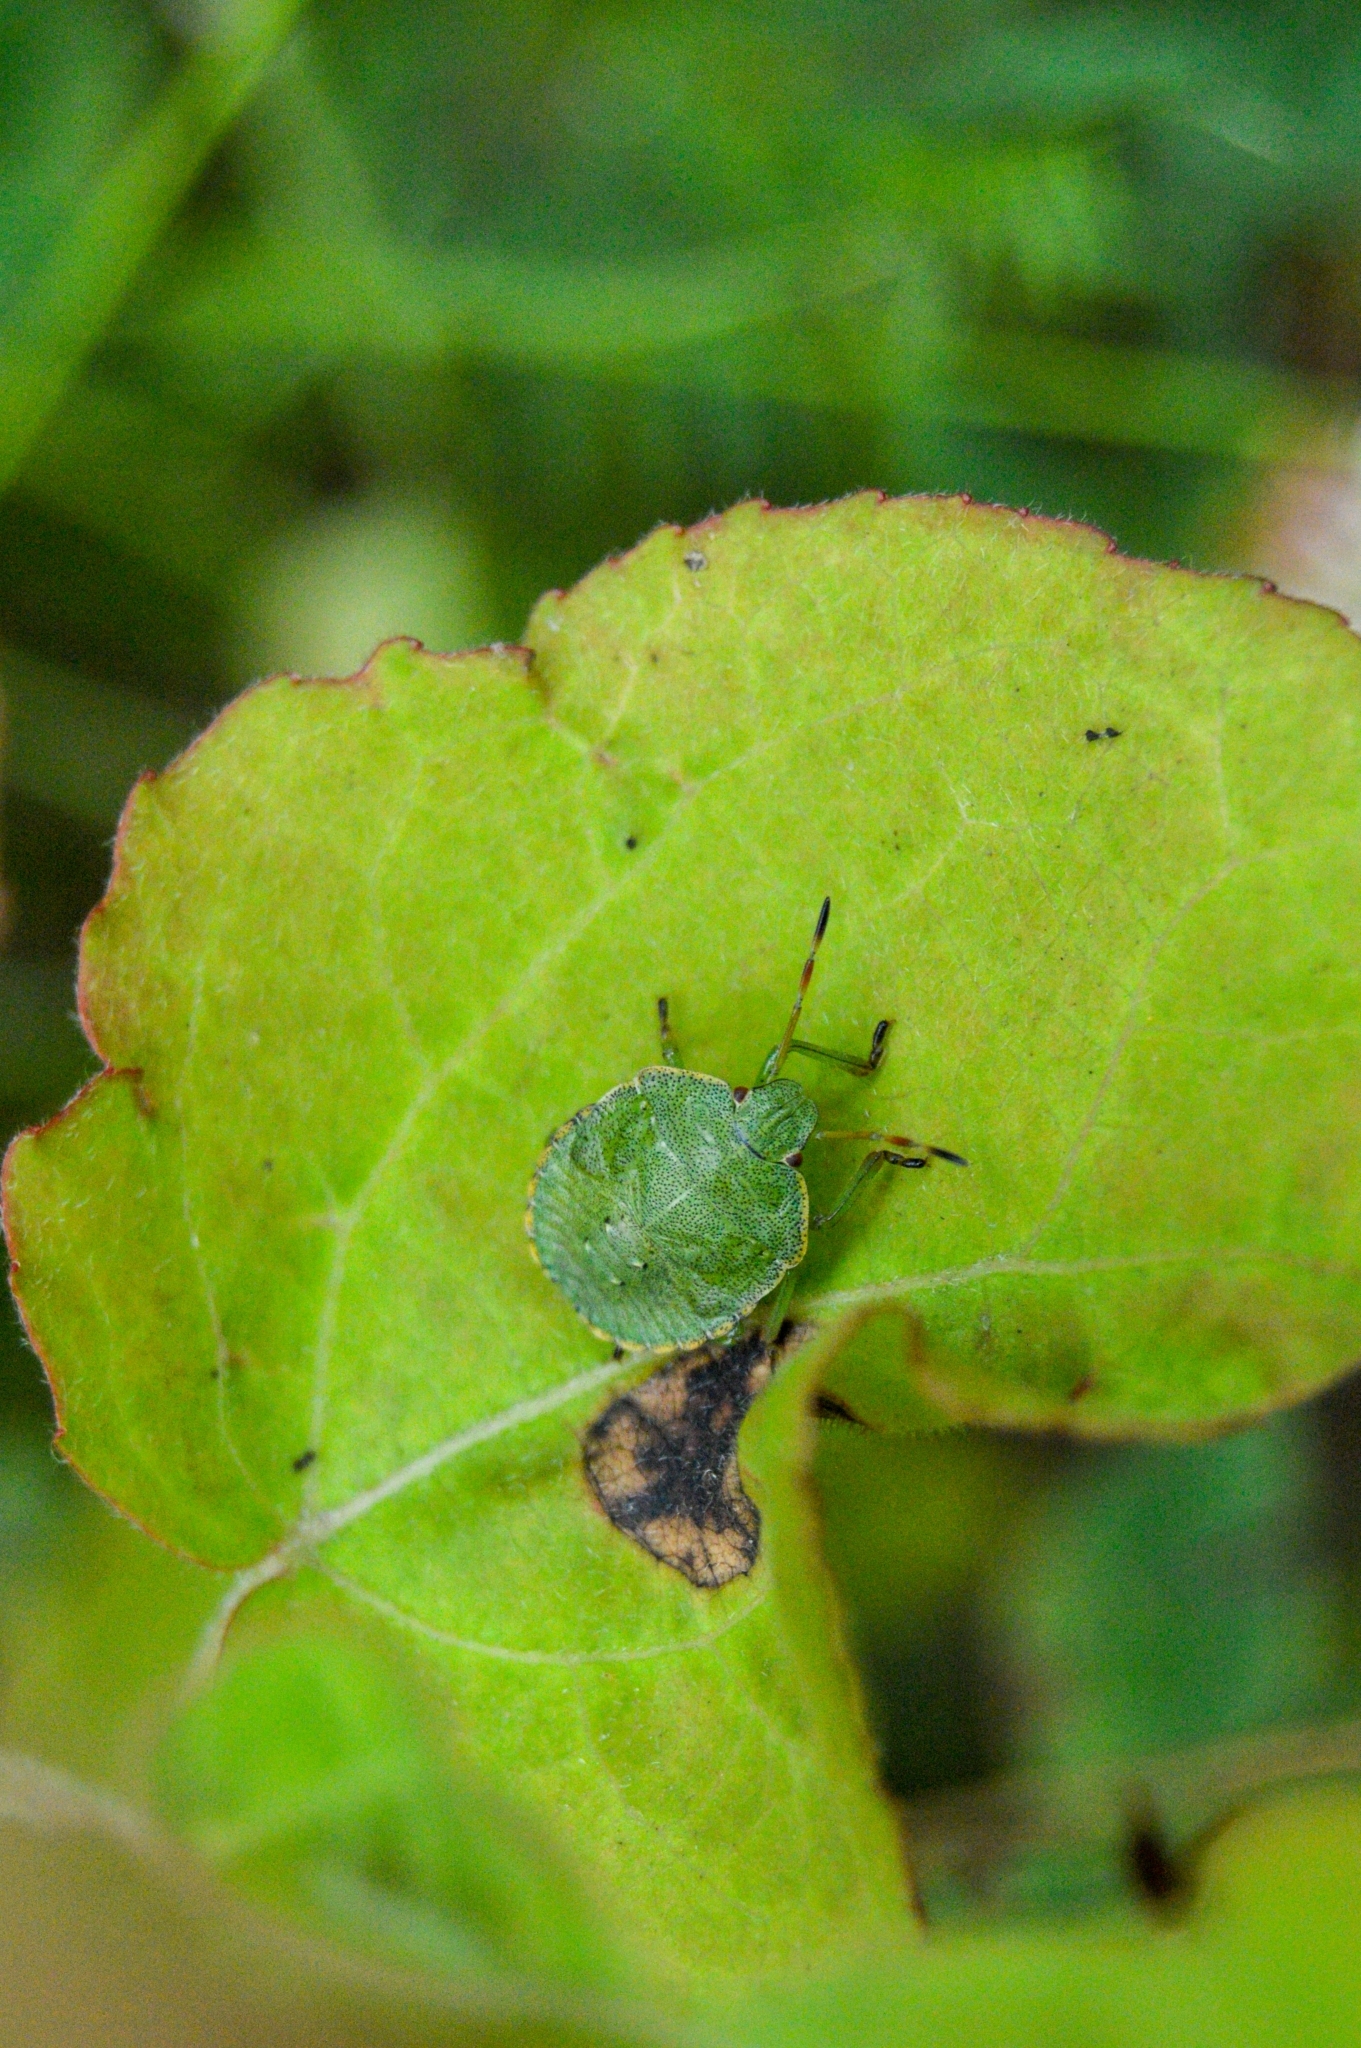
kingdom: Animalia
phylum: Arthropoda
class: Insecta
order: Hemiptera
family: Pentatomidae
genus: Palomena
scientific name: Palomena prasina
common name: Green shieldbug
